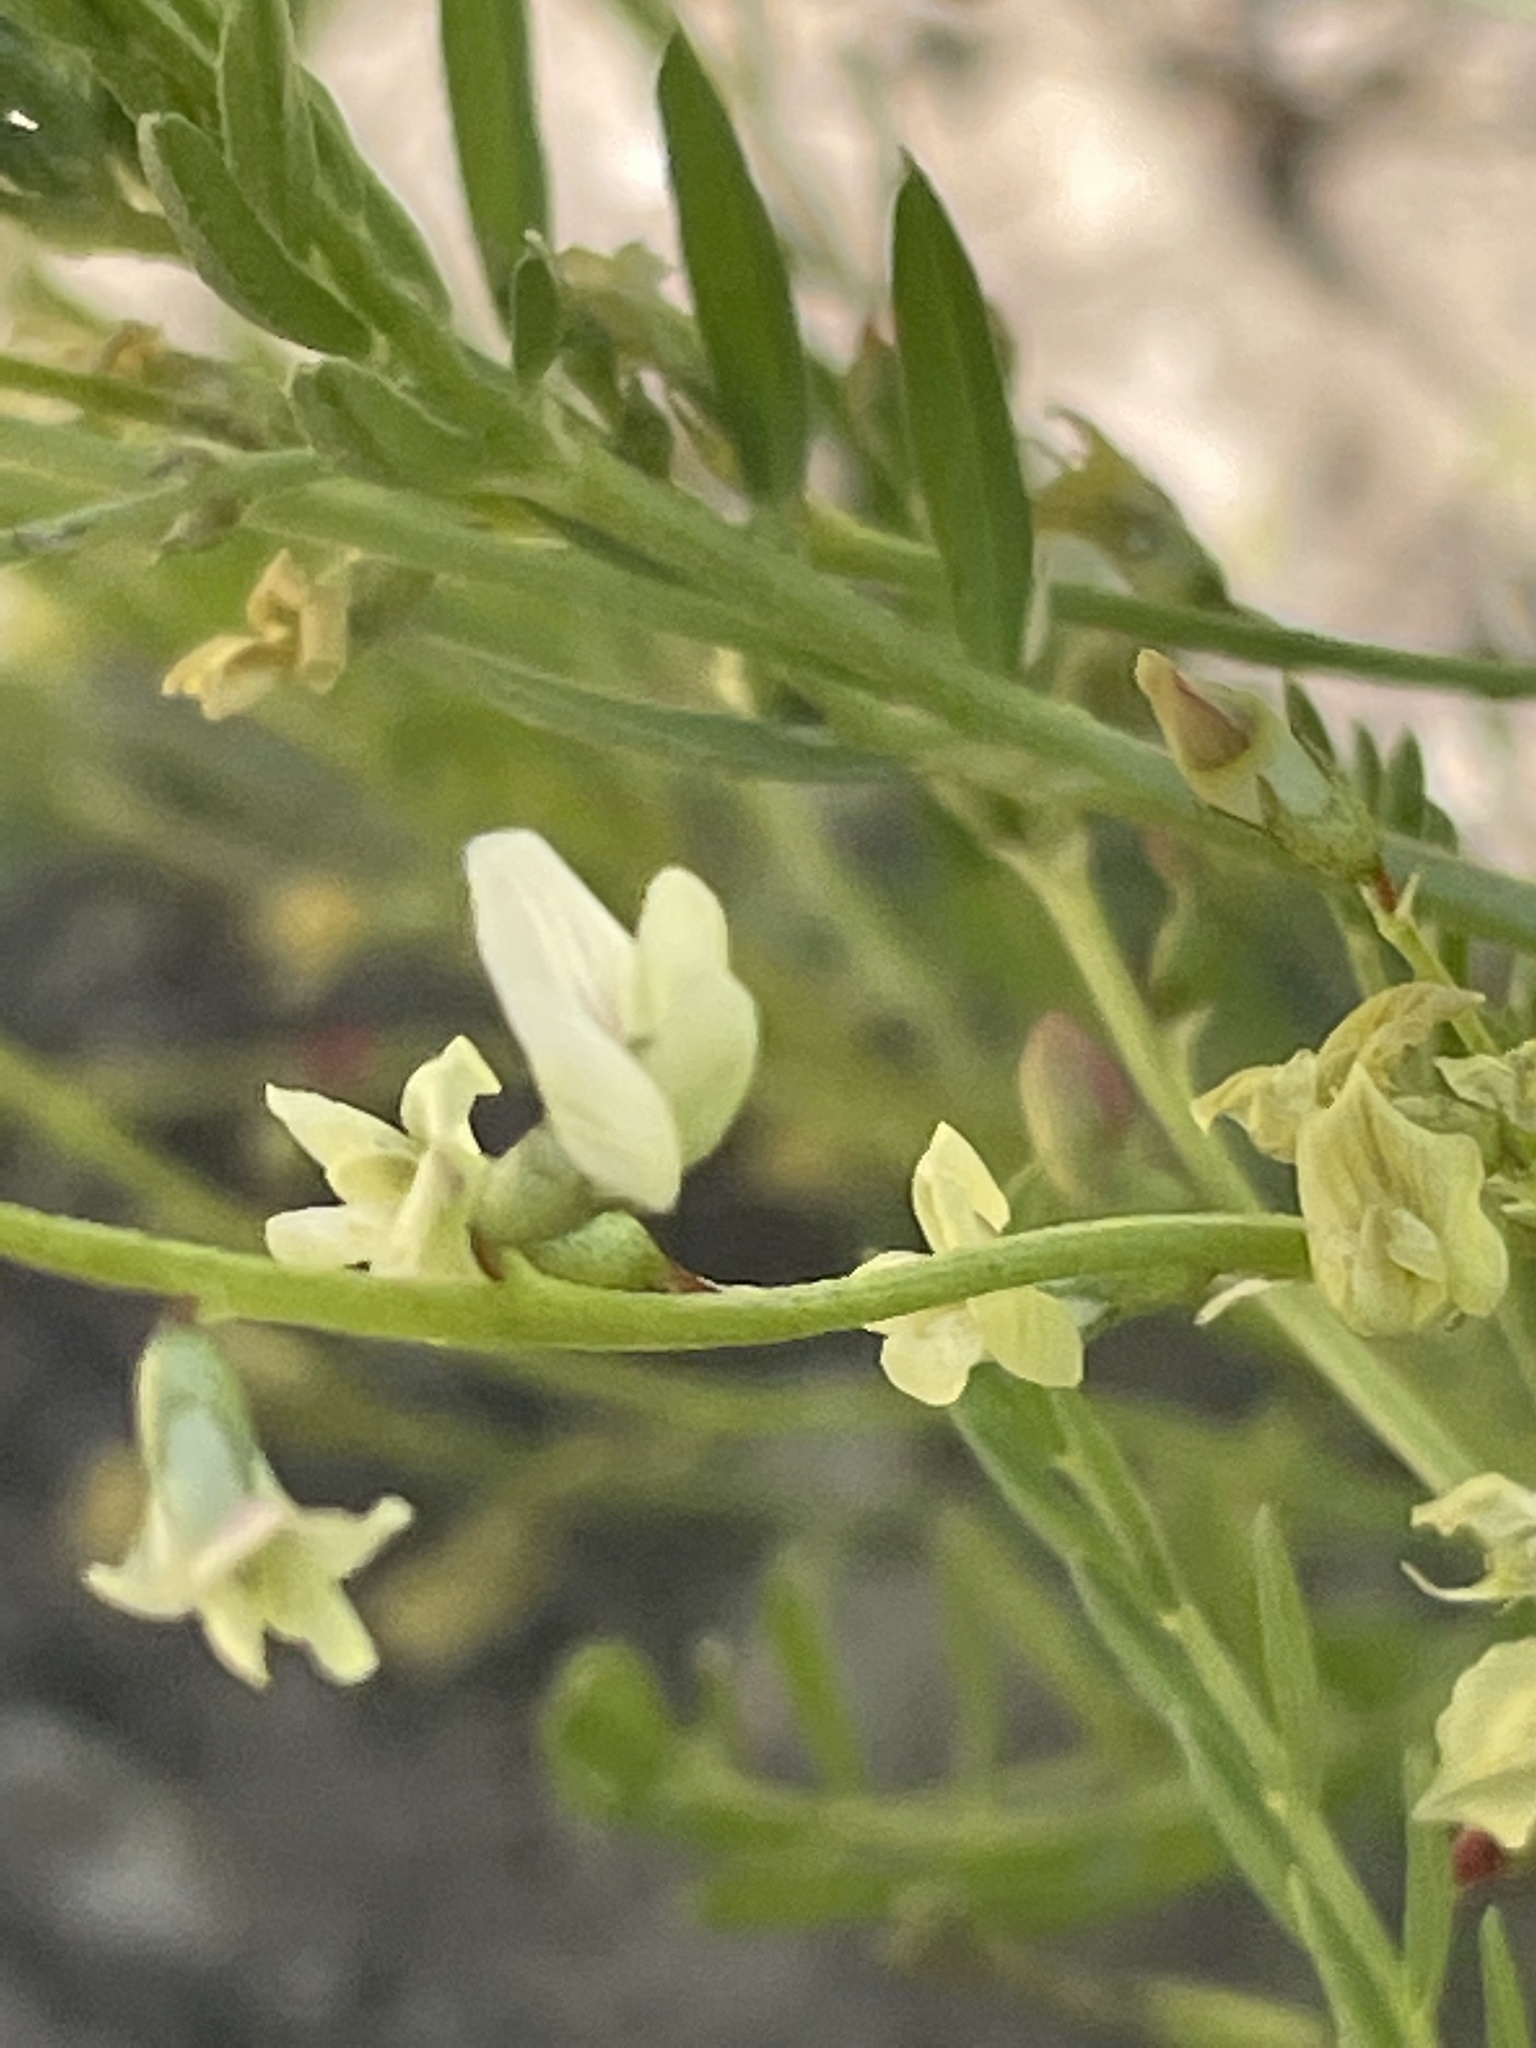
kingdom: Plantae
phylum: Tracheophyta
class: Magnoliopsida
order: Fabales
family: Fabaceae
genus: Astragalus
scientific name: Astragalus tenellus
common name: Pulse milk-vetch
